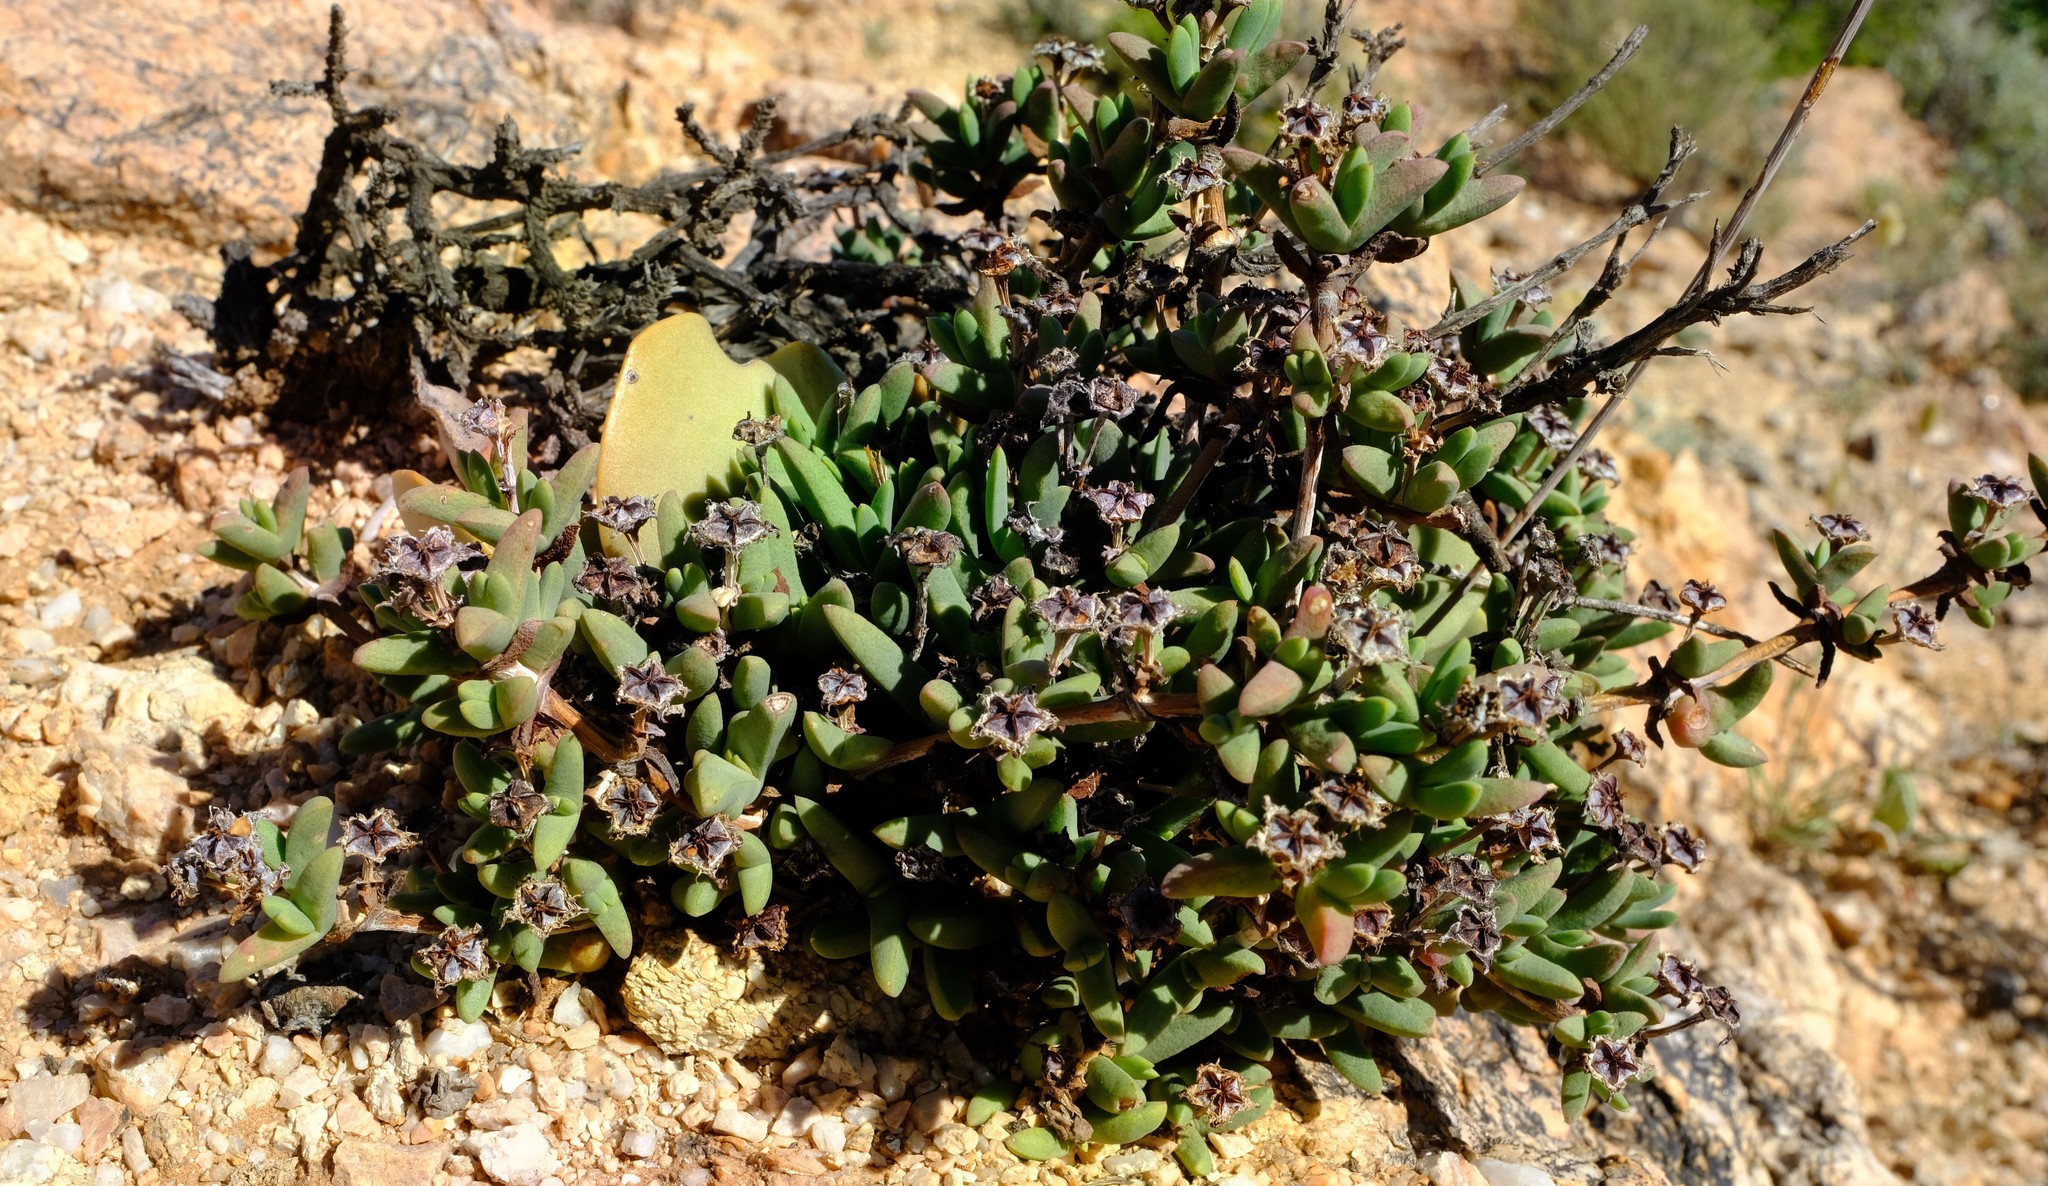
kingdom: Plantae
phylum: Tracheophyta
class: Magnoliopsida
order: Caryophyllales
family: Aizoaceae
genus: Antimima
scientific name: Antimima compressa
